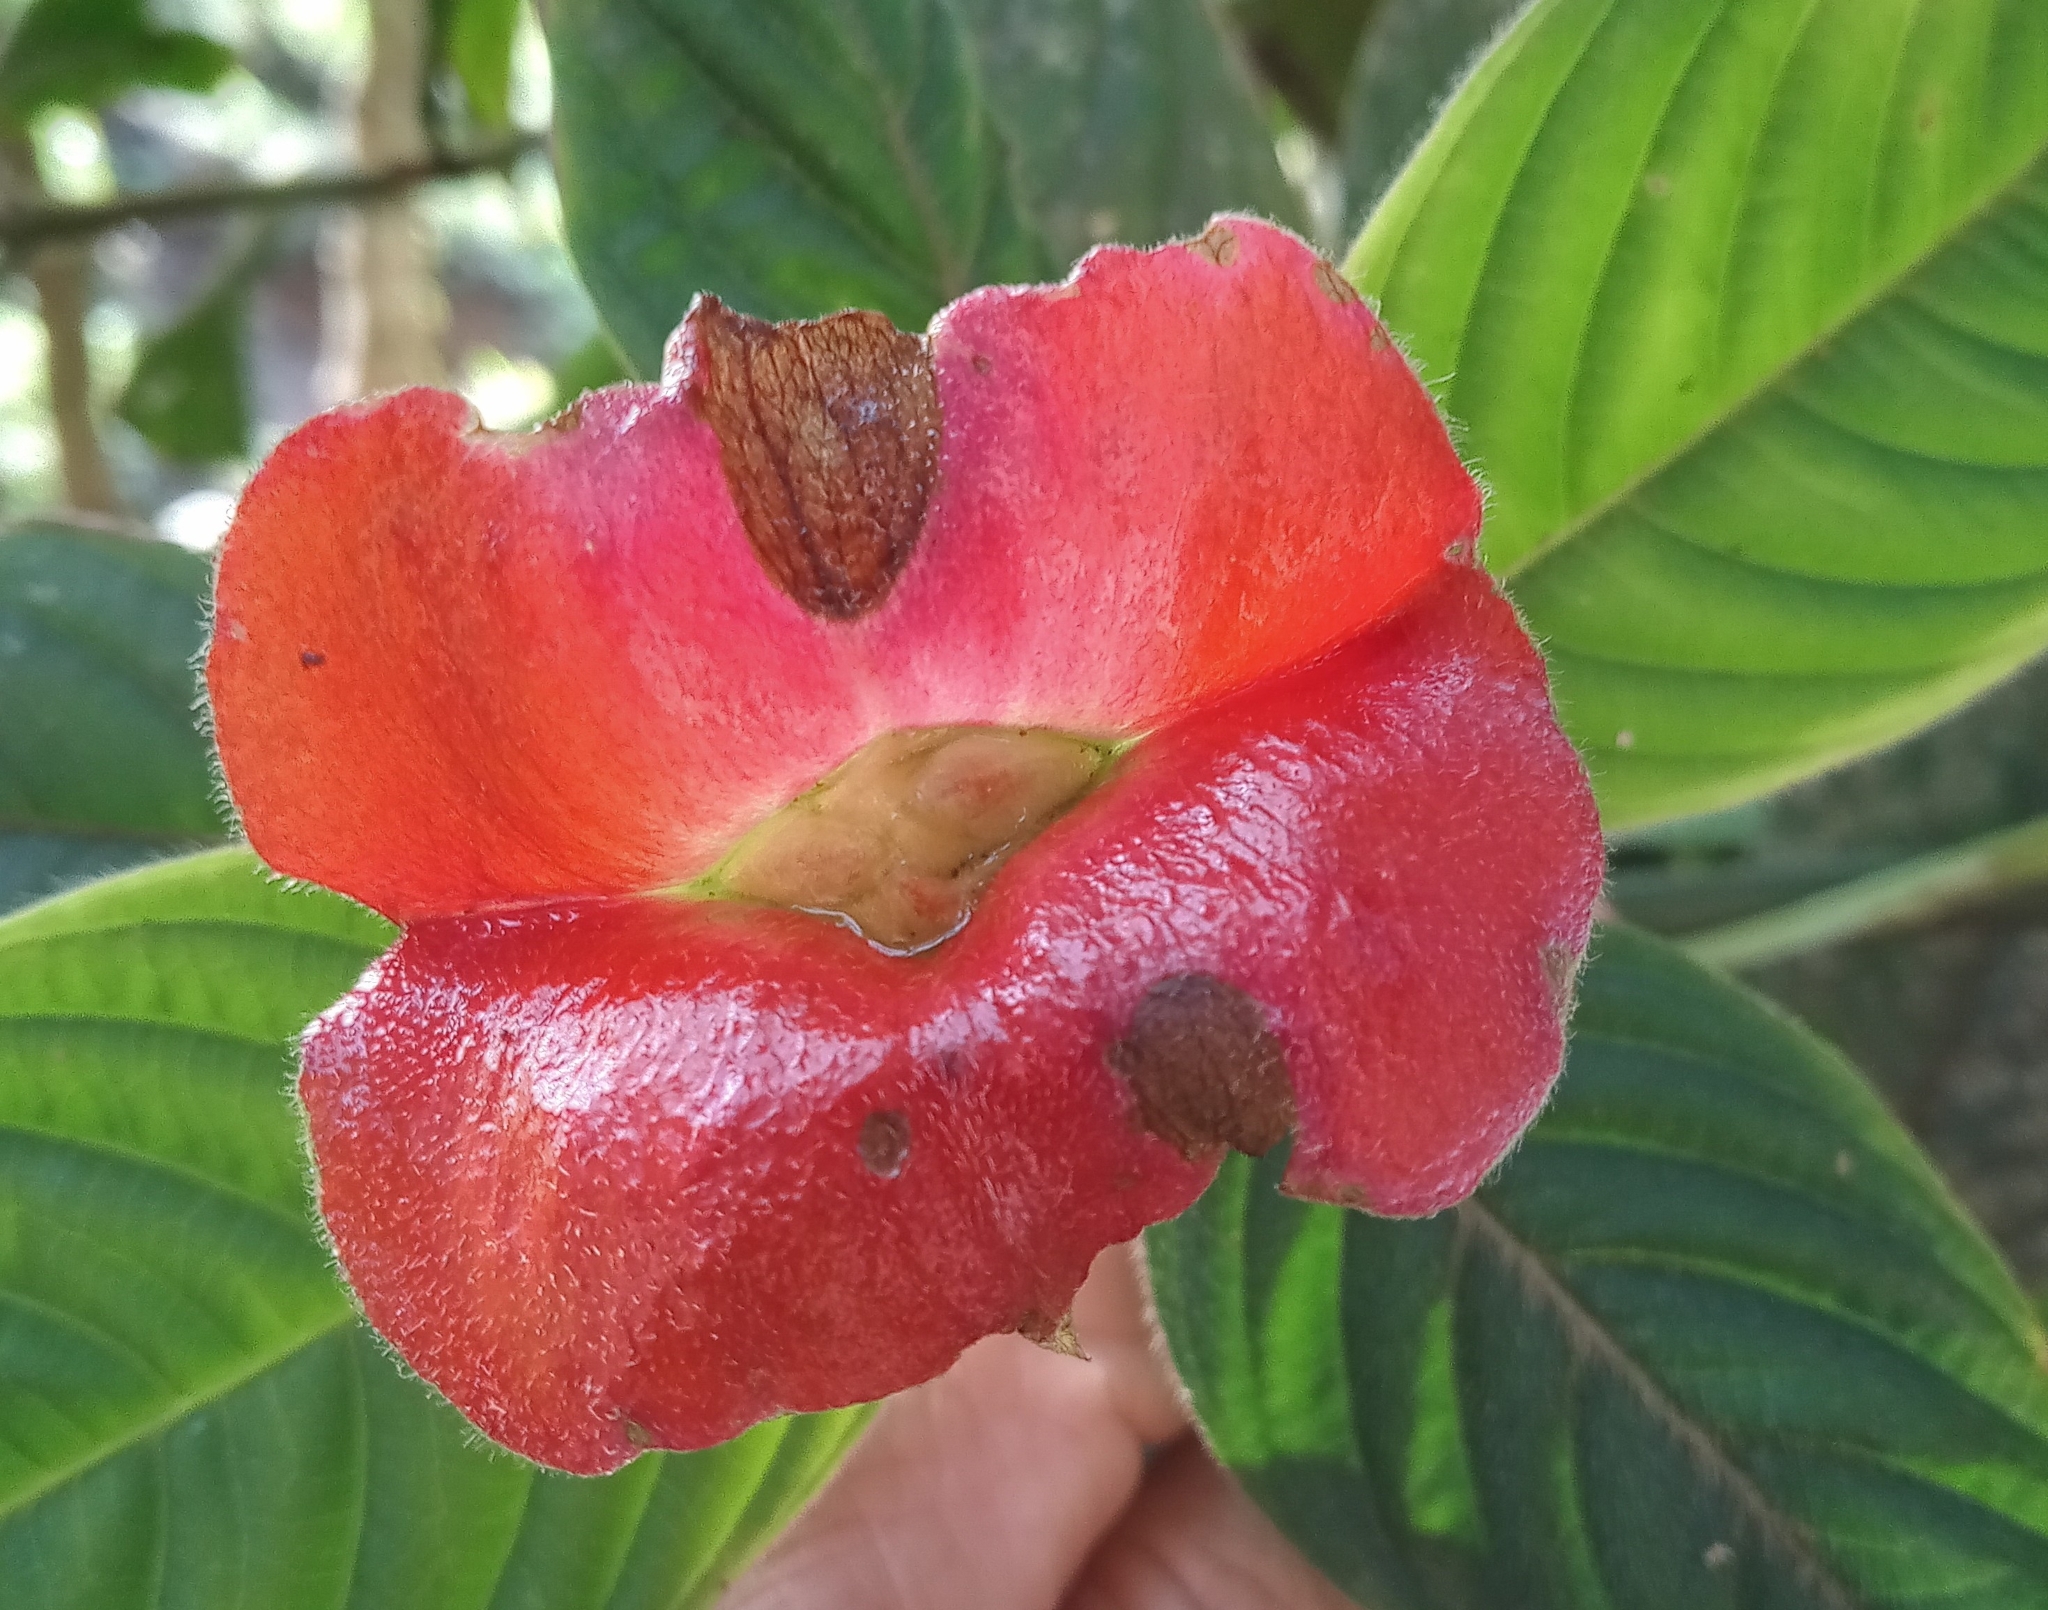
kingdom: Plantae
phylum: Tracheophyta
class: Magnoliopsida
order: Gentianales
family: Rubiaceae
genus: Palicourea
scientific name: Palicourea tomentosa
